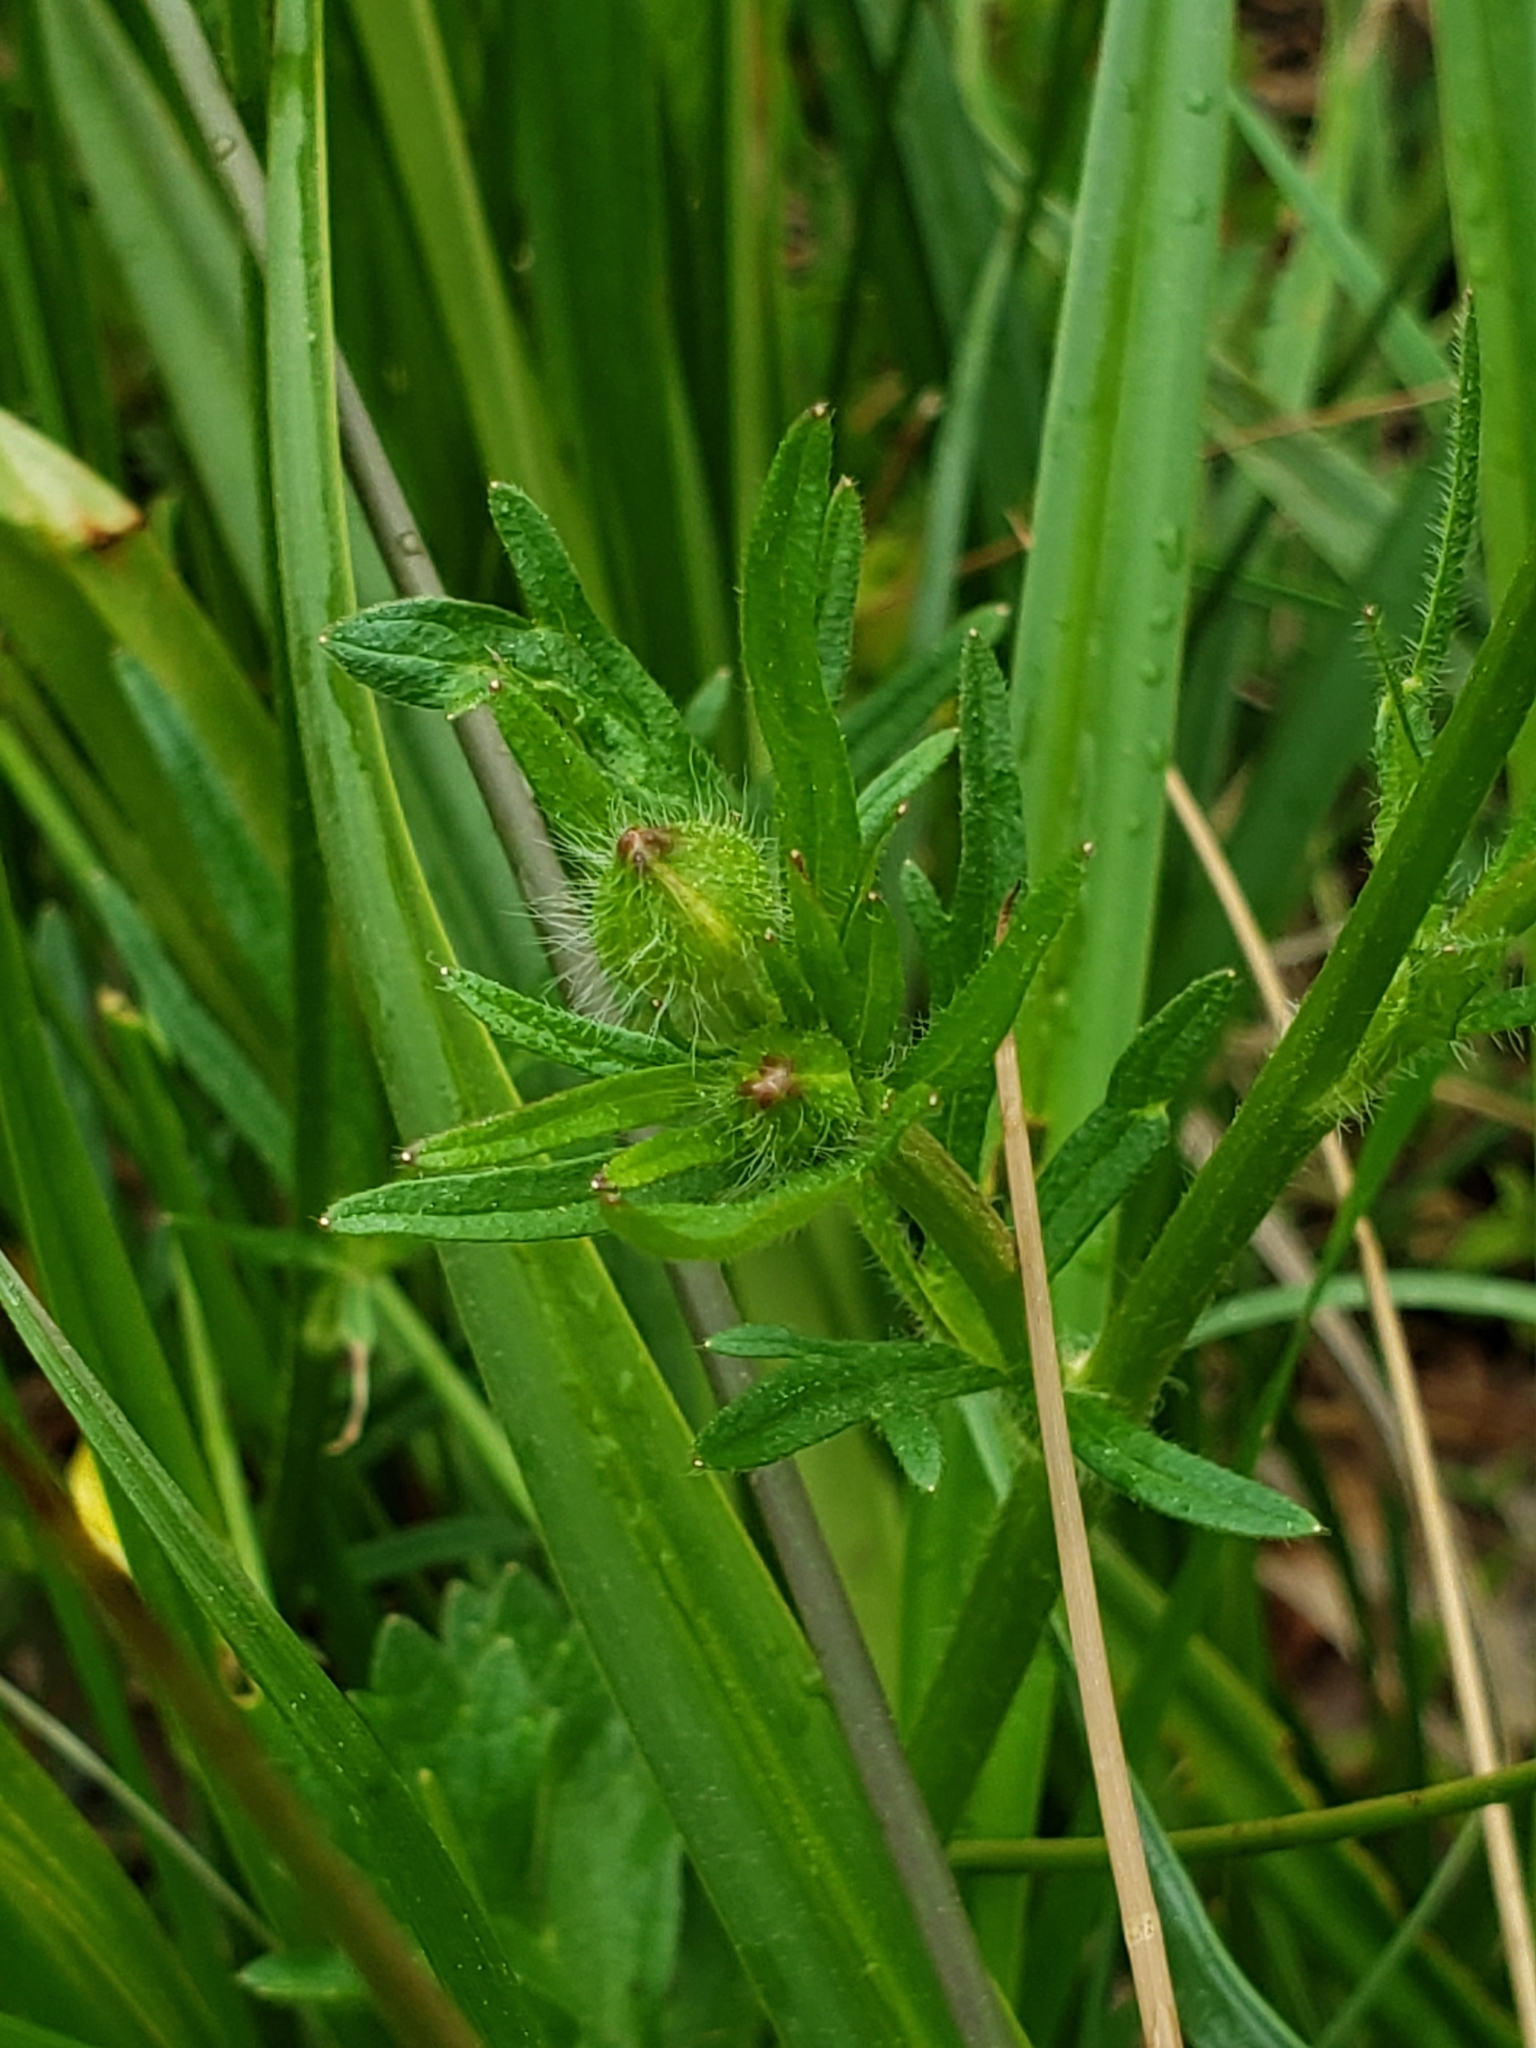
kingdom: Plantae
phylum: Tracheophyta
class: Magnoliopsida
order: Ranunculales
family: Ranunculaceae
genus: Ranunculus
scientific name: Ranunculus bulbosus
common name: Bulbous buttercup
